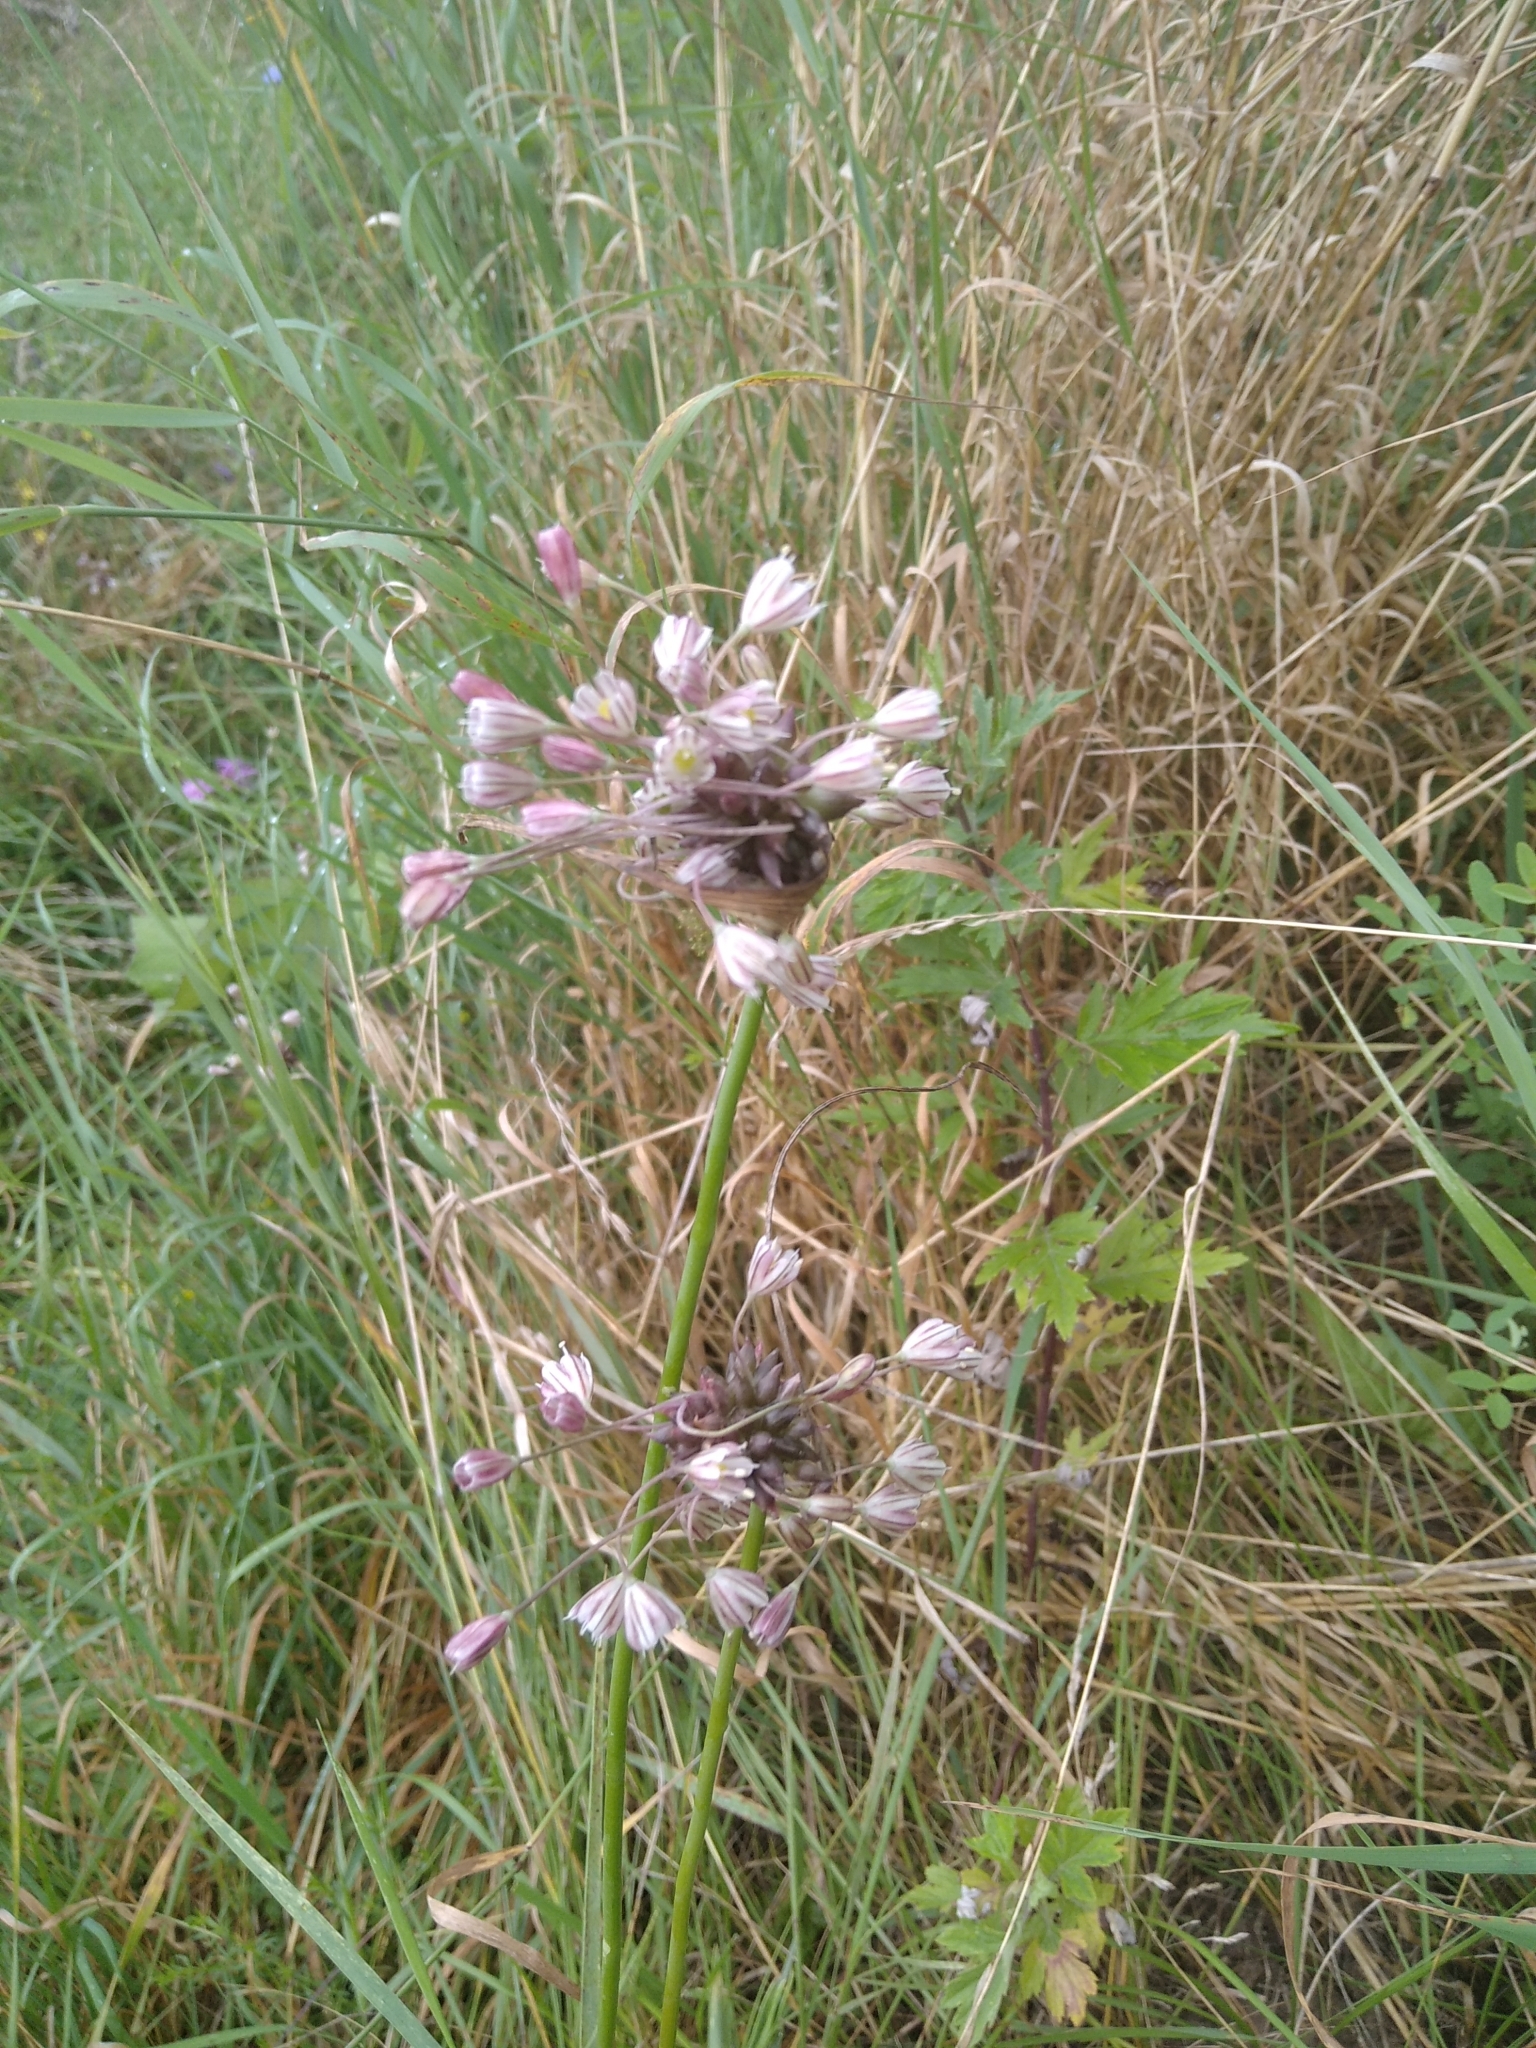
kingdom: Plantae
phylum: Tracheophyta
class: Liliopsida
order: Asparagales
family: Amaryllidaceae
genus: Allium
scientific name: Allium oleraceum
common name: Field garlic
